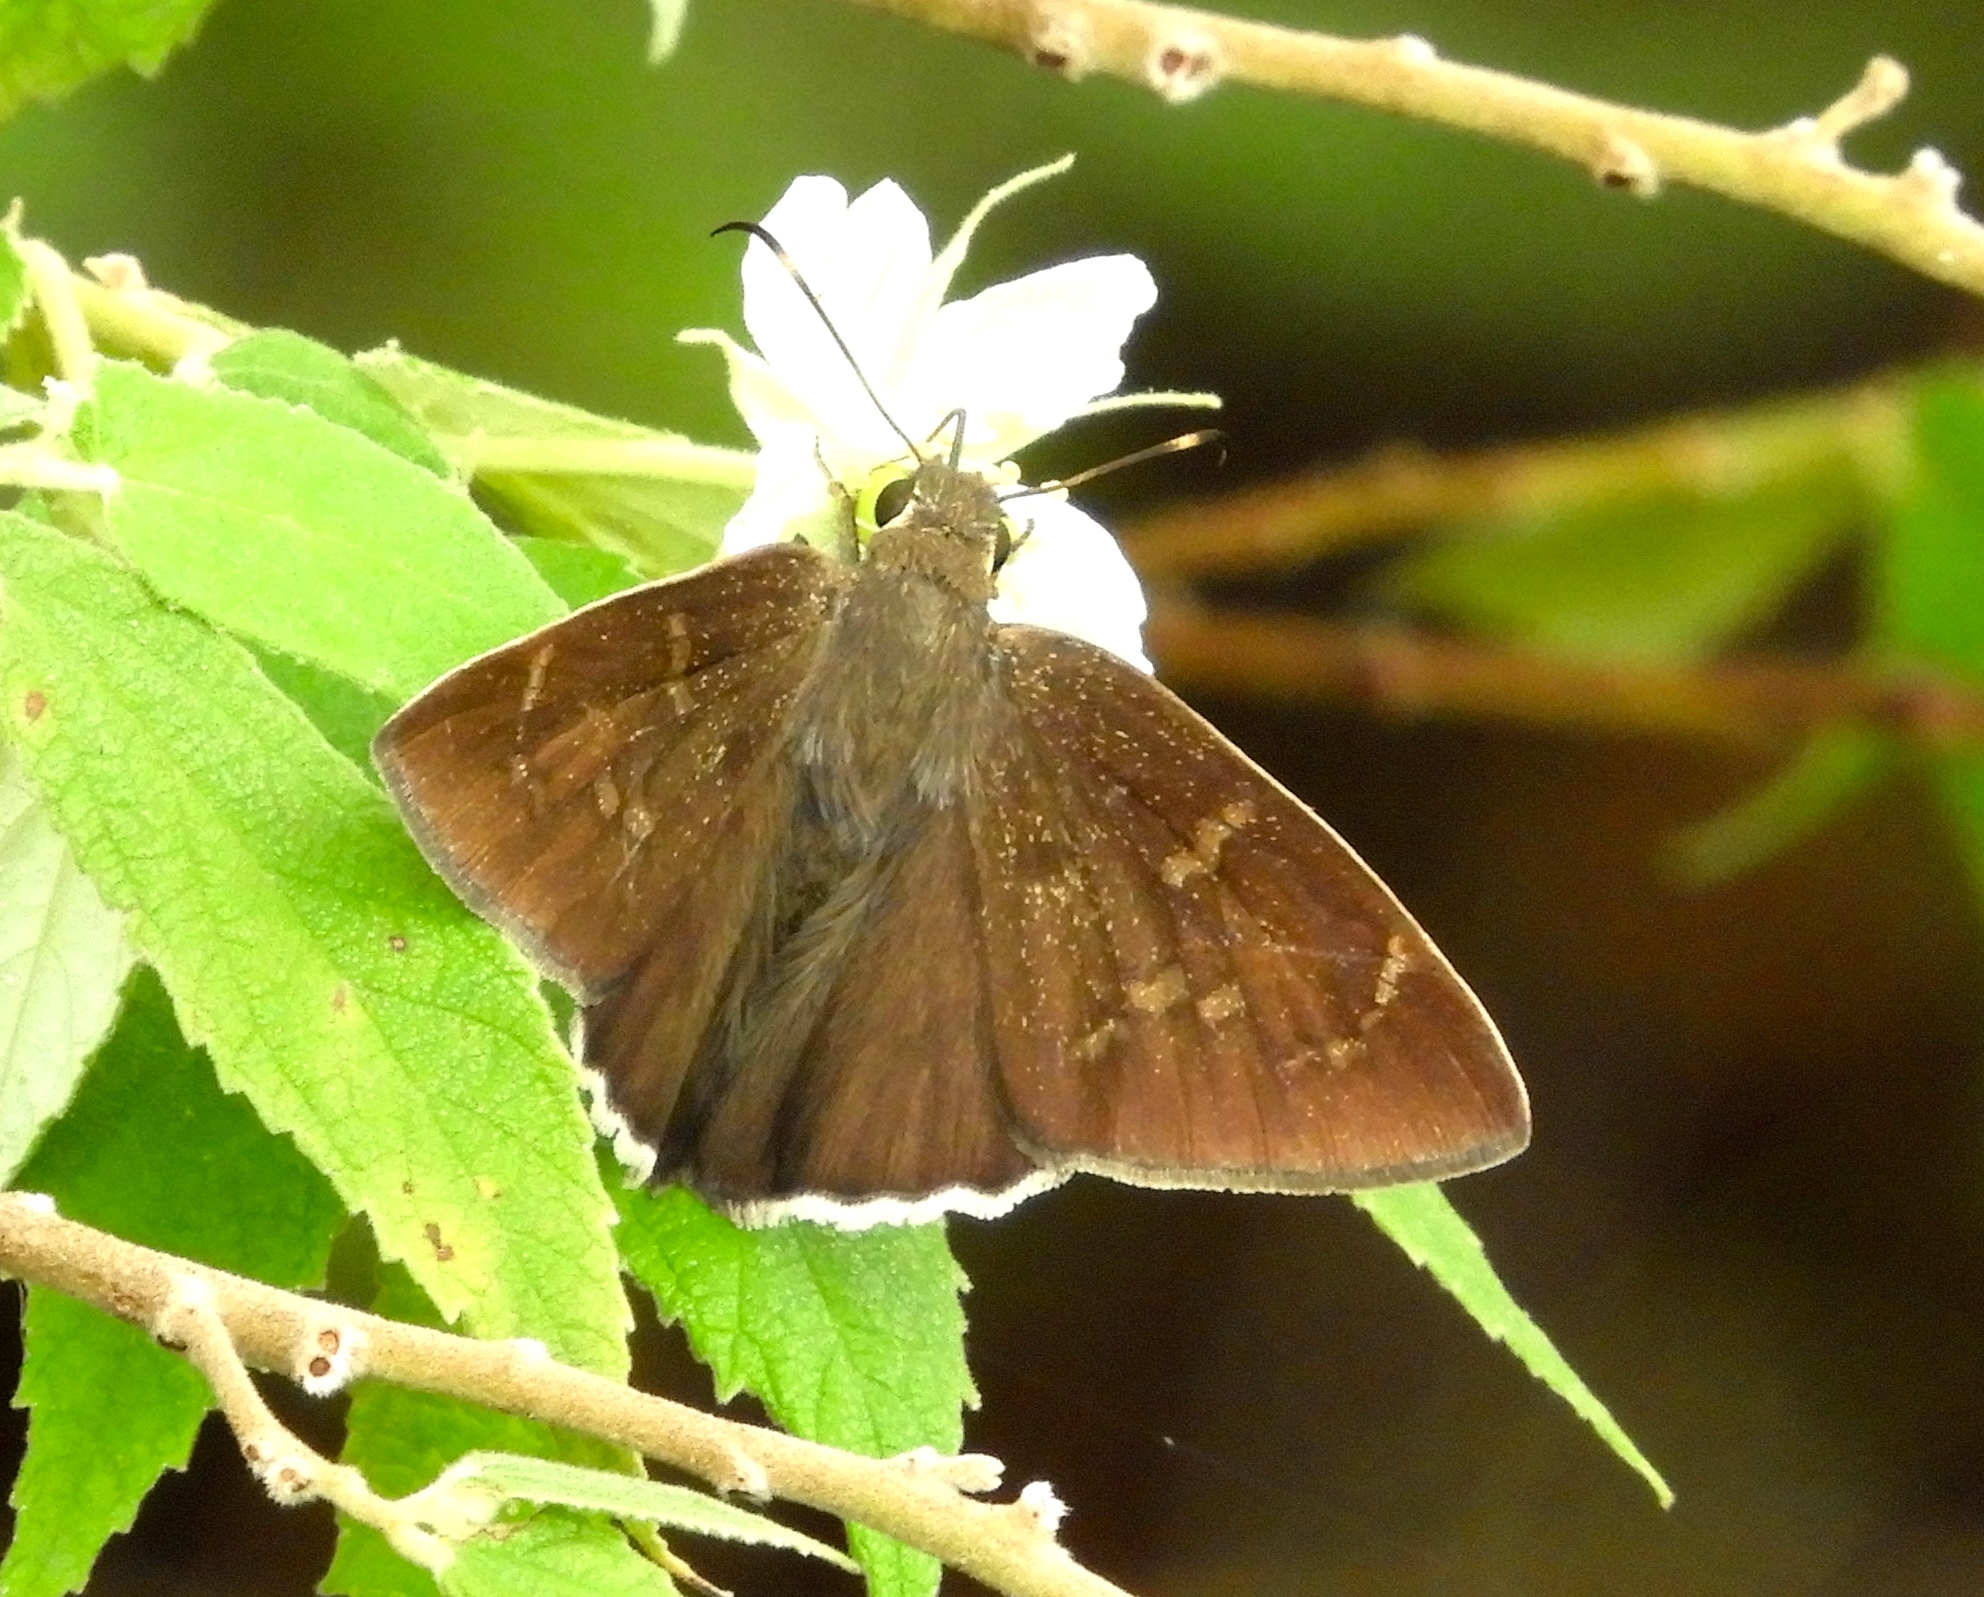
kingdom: Animalia
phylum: Arthropoda
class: Insecta
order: Lepidoptera
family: Hesperiidae
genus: Erynnis
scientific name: Erynnis funeralis
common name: Funereal duskywing
